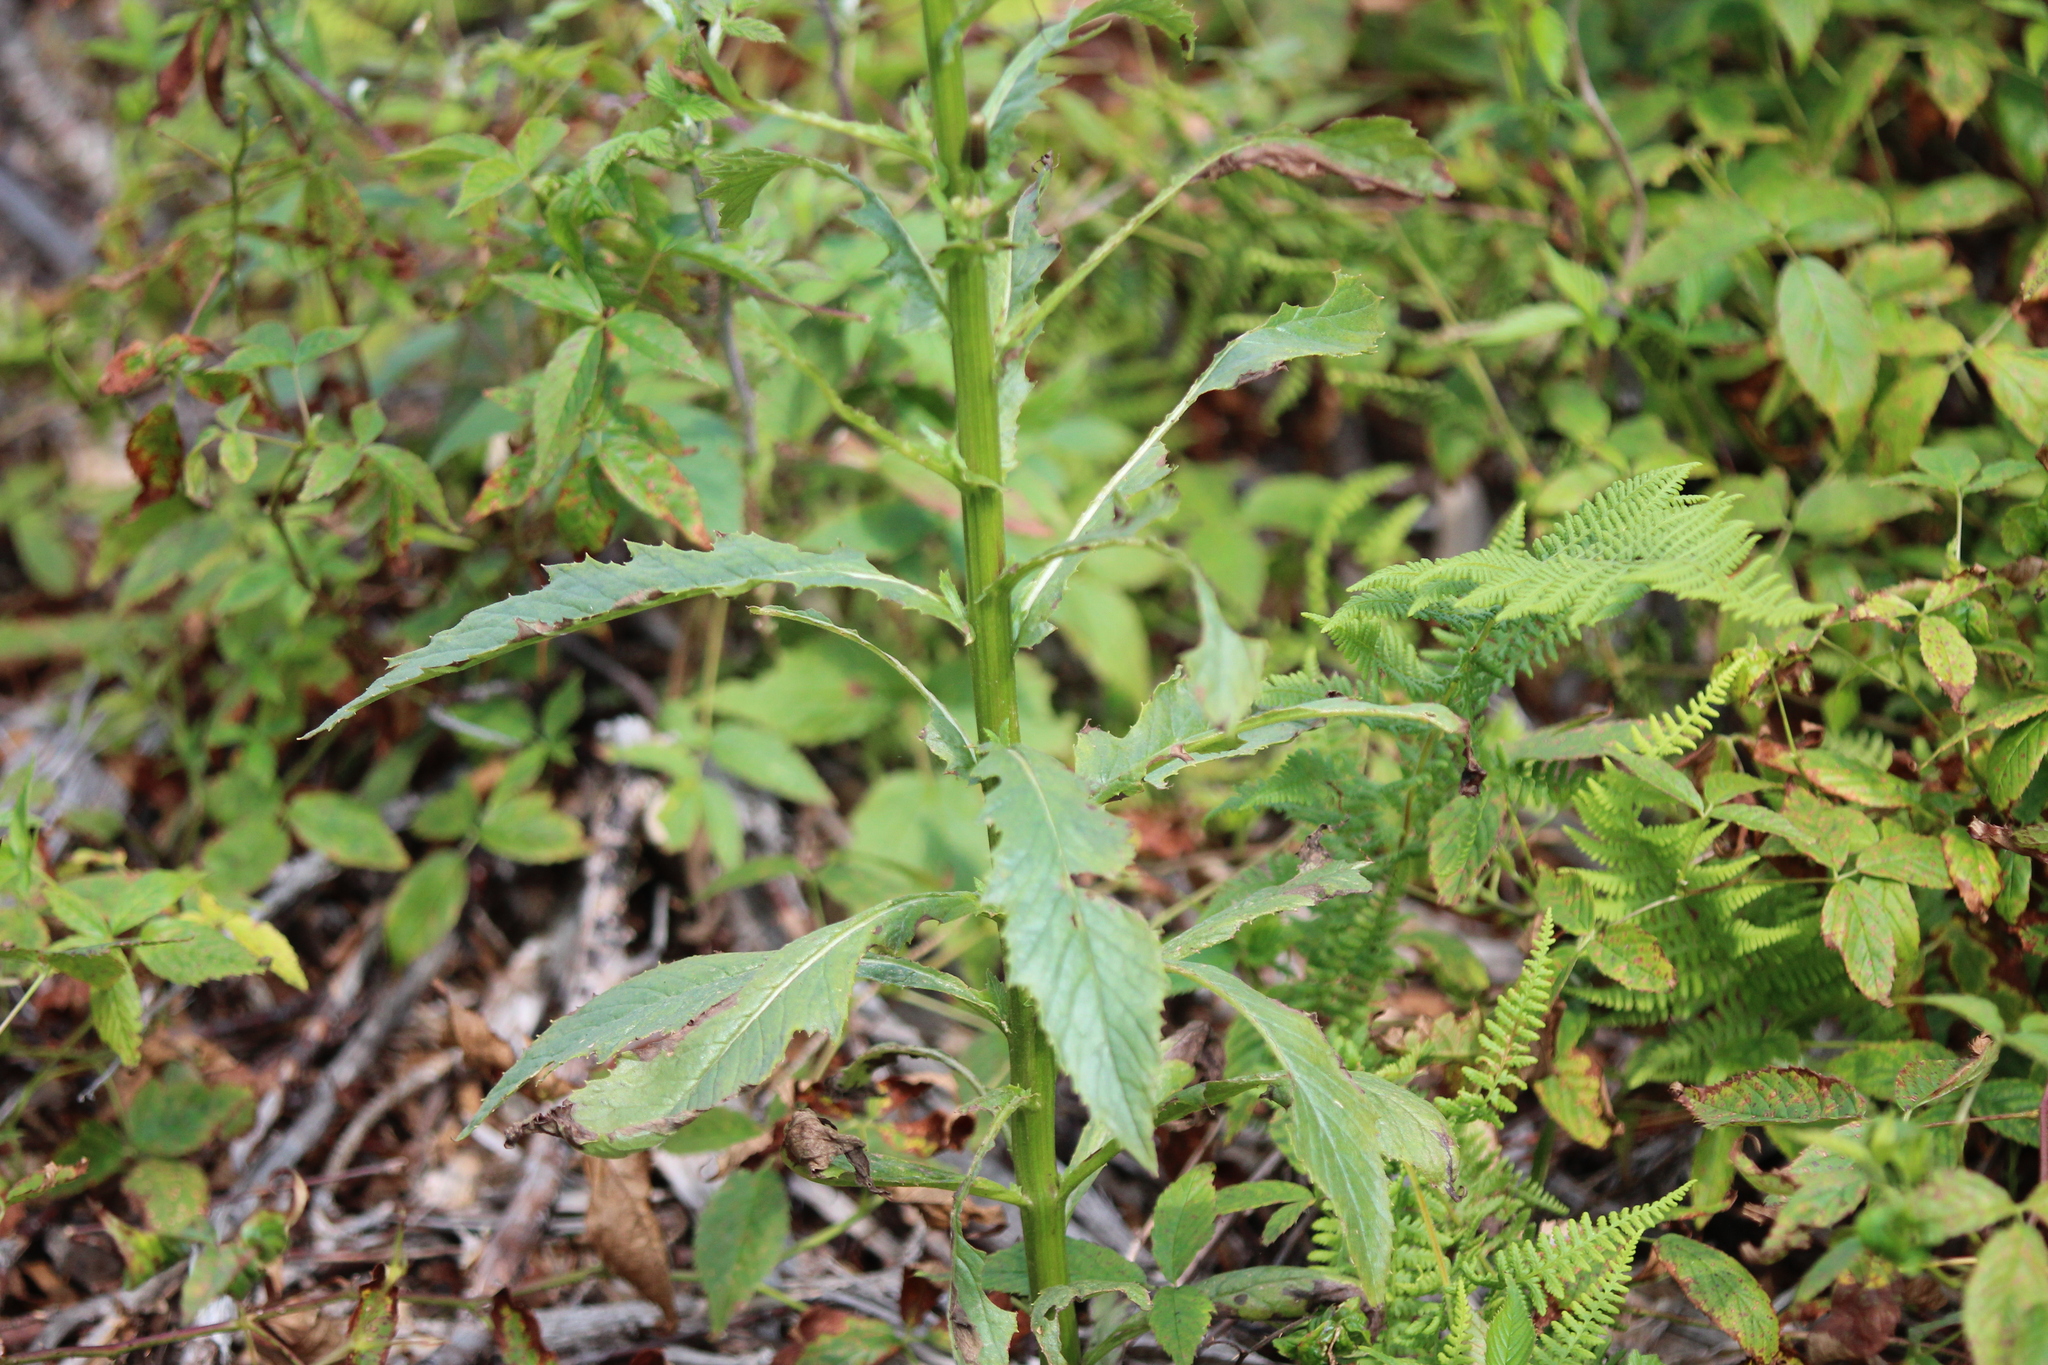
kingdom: Plantae
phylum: Tracheophyta
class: Magnoliopsida
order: Asterales
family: Asteraceae
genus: Erechtites
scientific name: Erechtites hieraciifolius
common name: American burnweed
